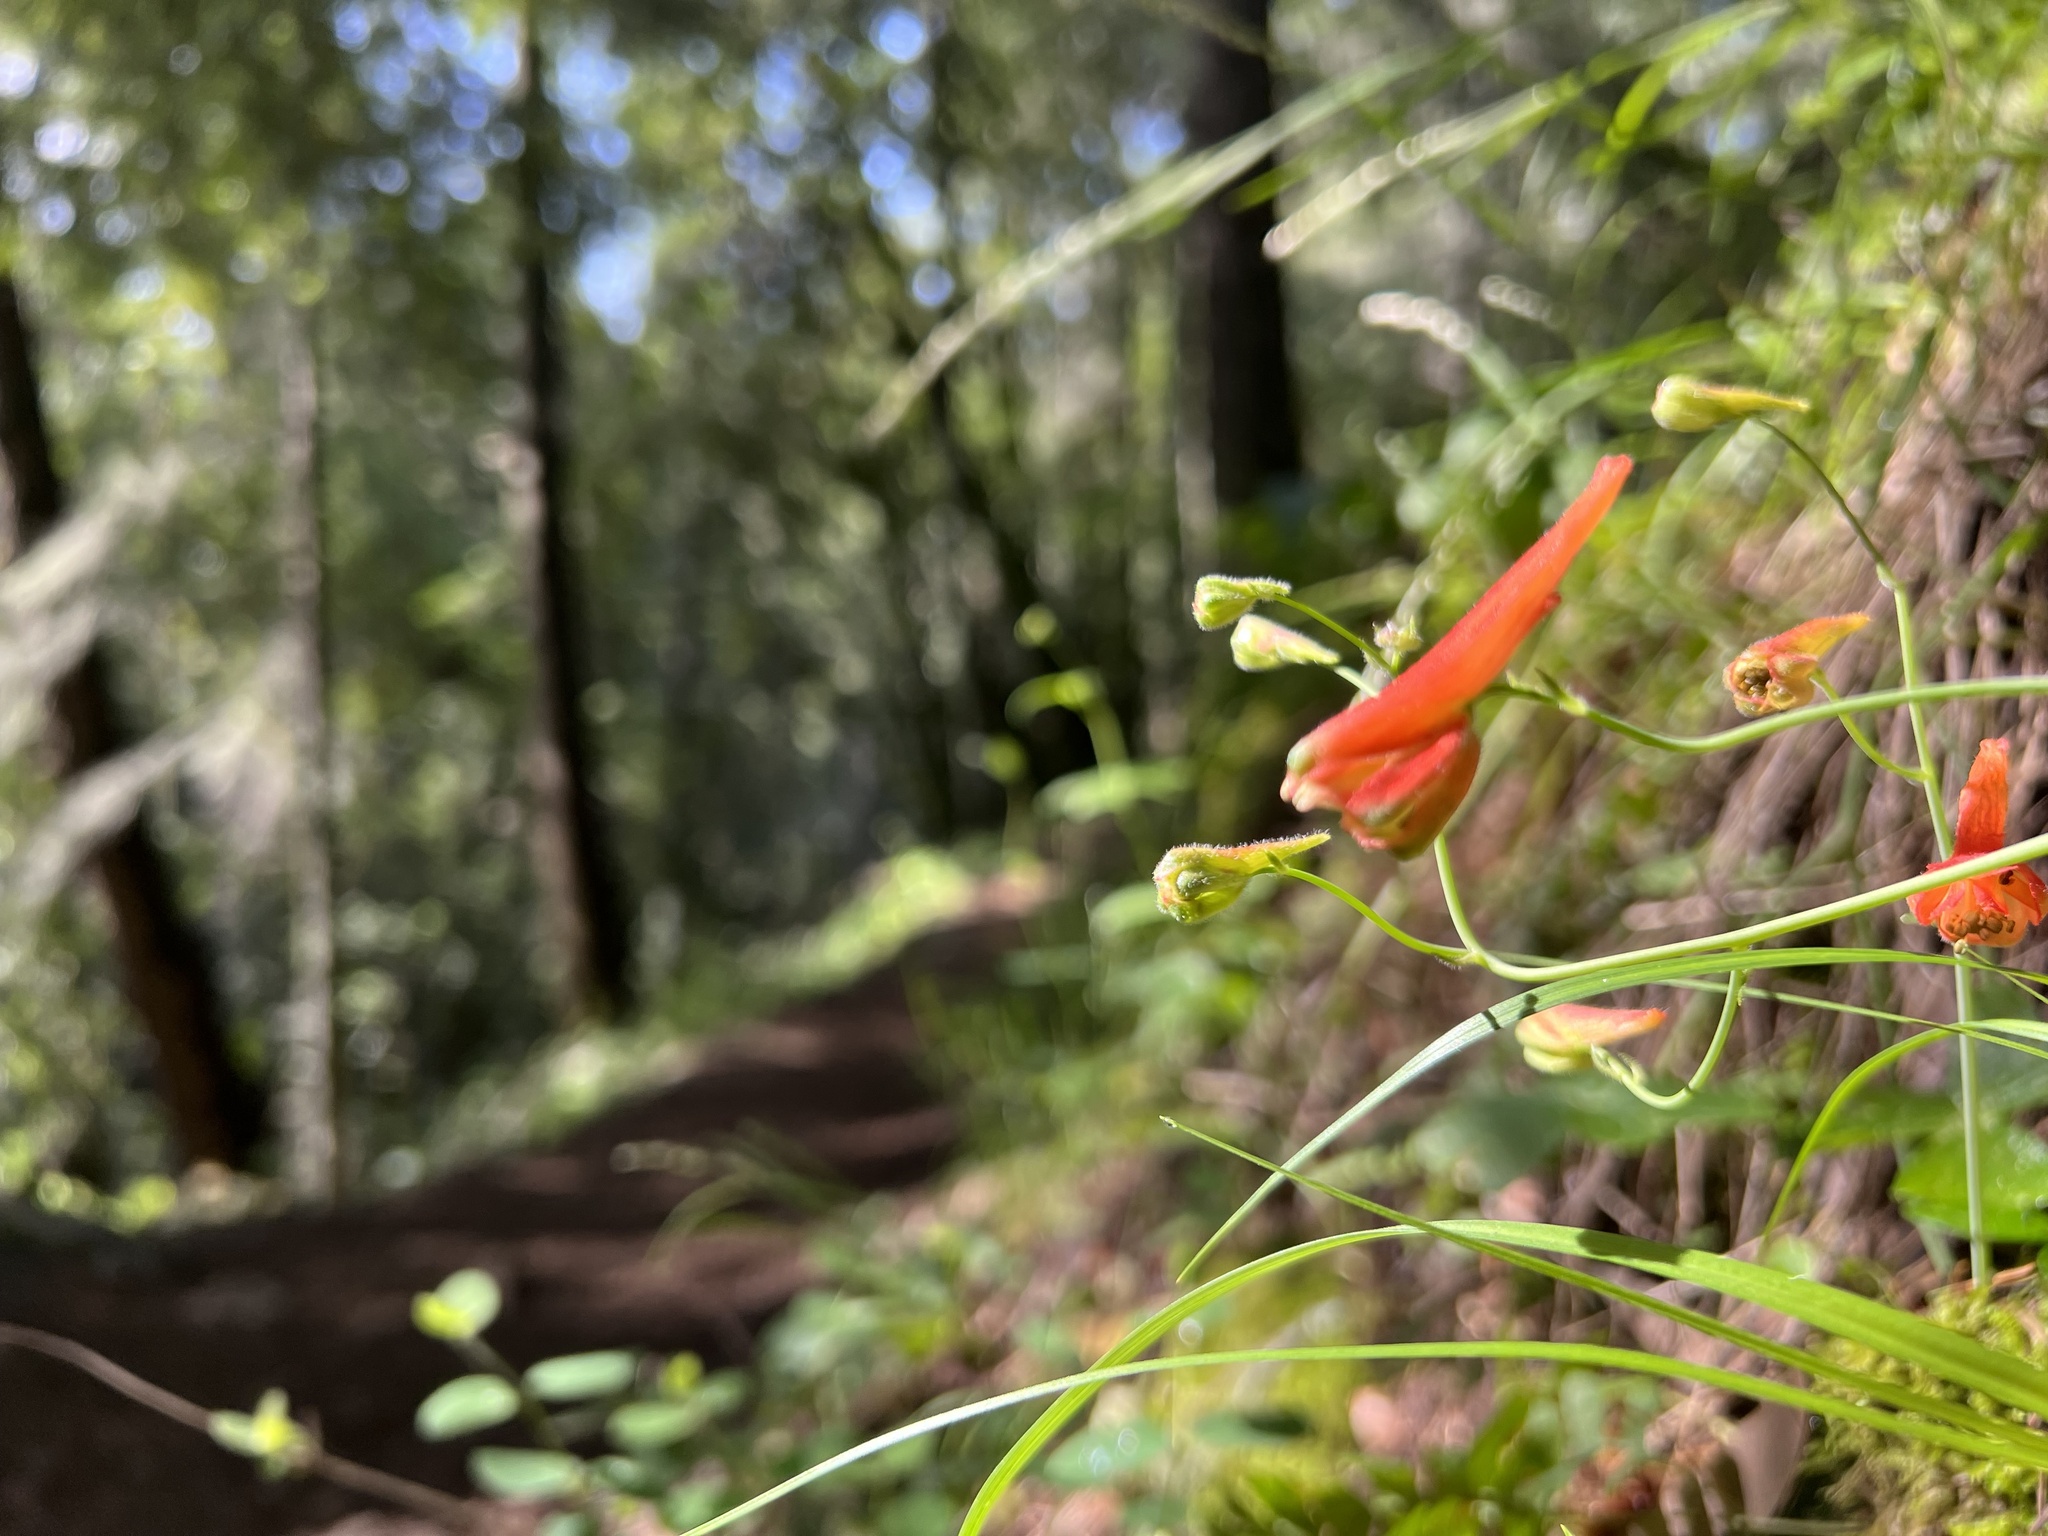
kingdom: Plantae
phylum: Tracheophyta
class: Magnoliopsida
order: Ranunculales
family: Ranunculaceae
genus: Delphinium
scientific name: Delphinium nudicaule
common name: Red larkspur
